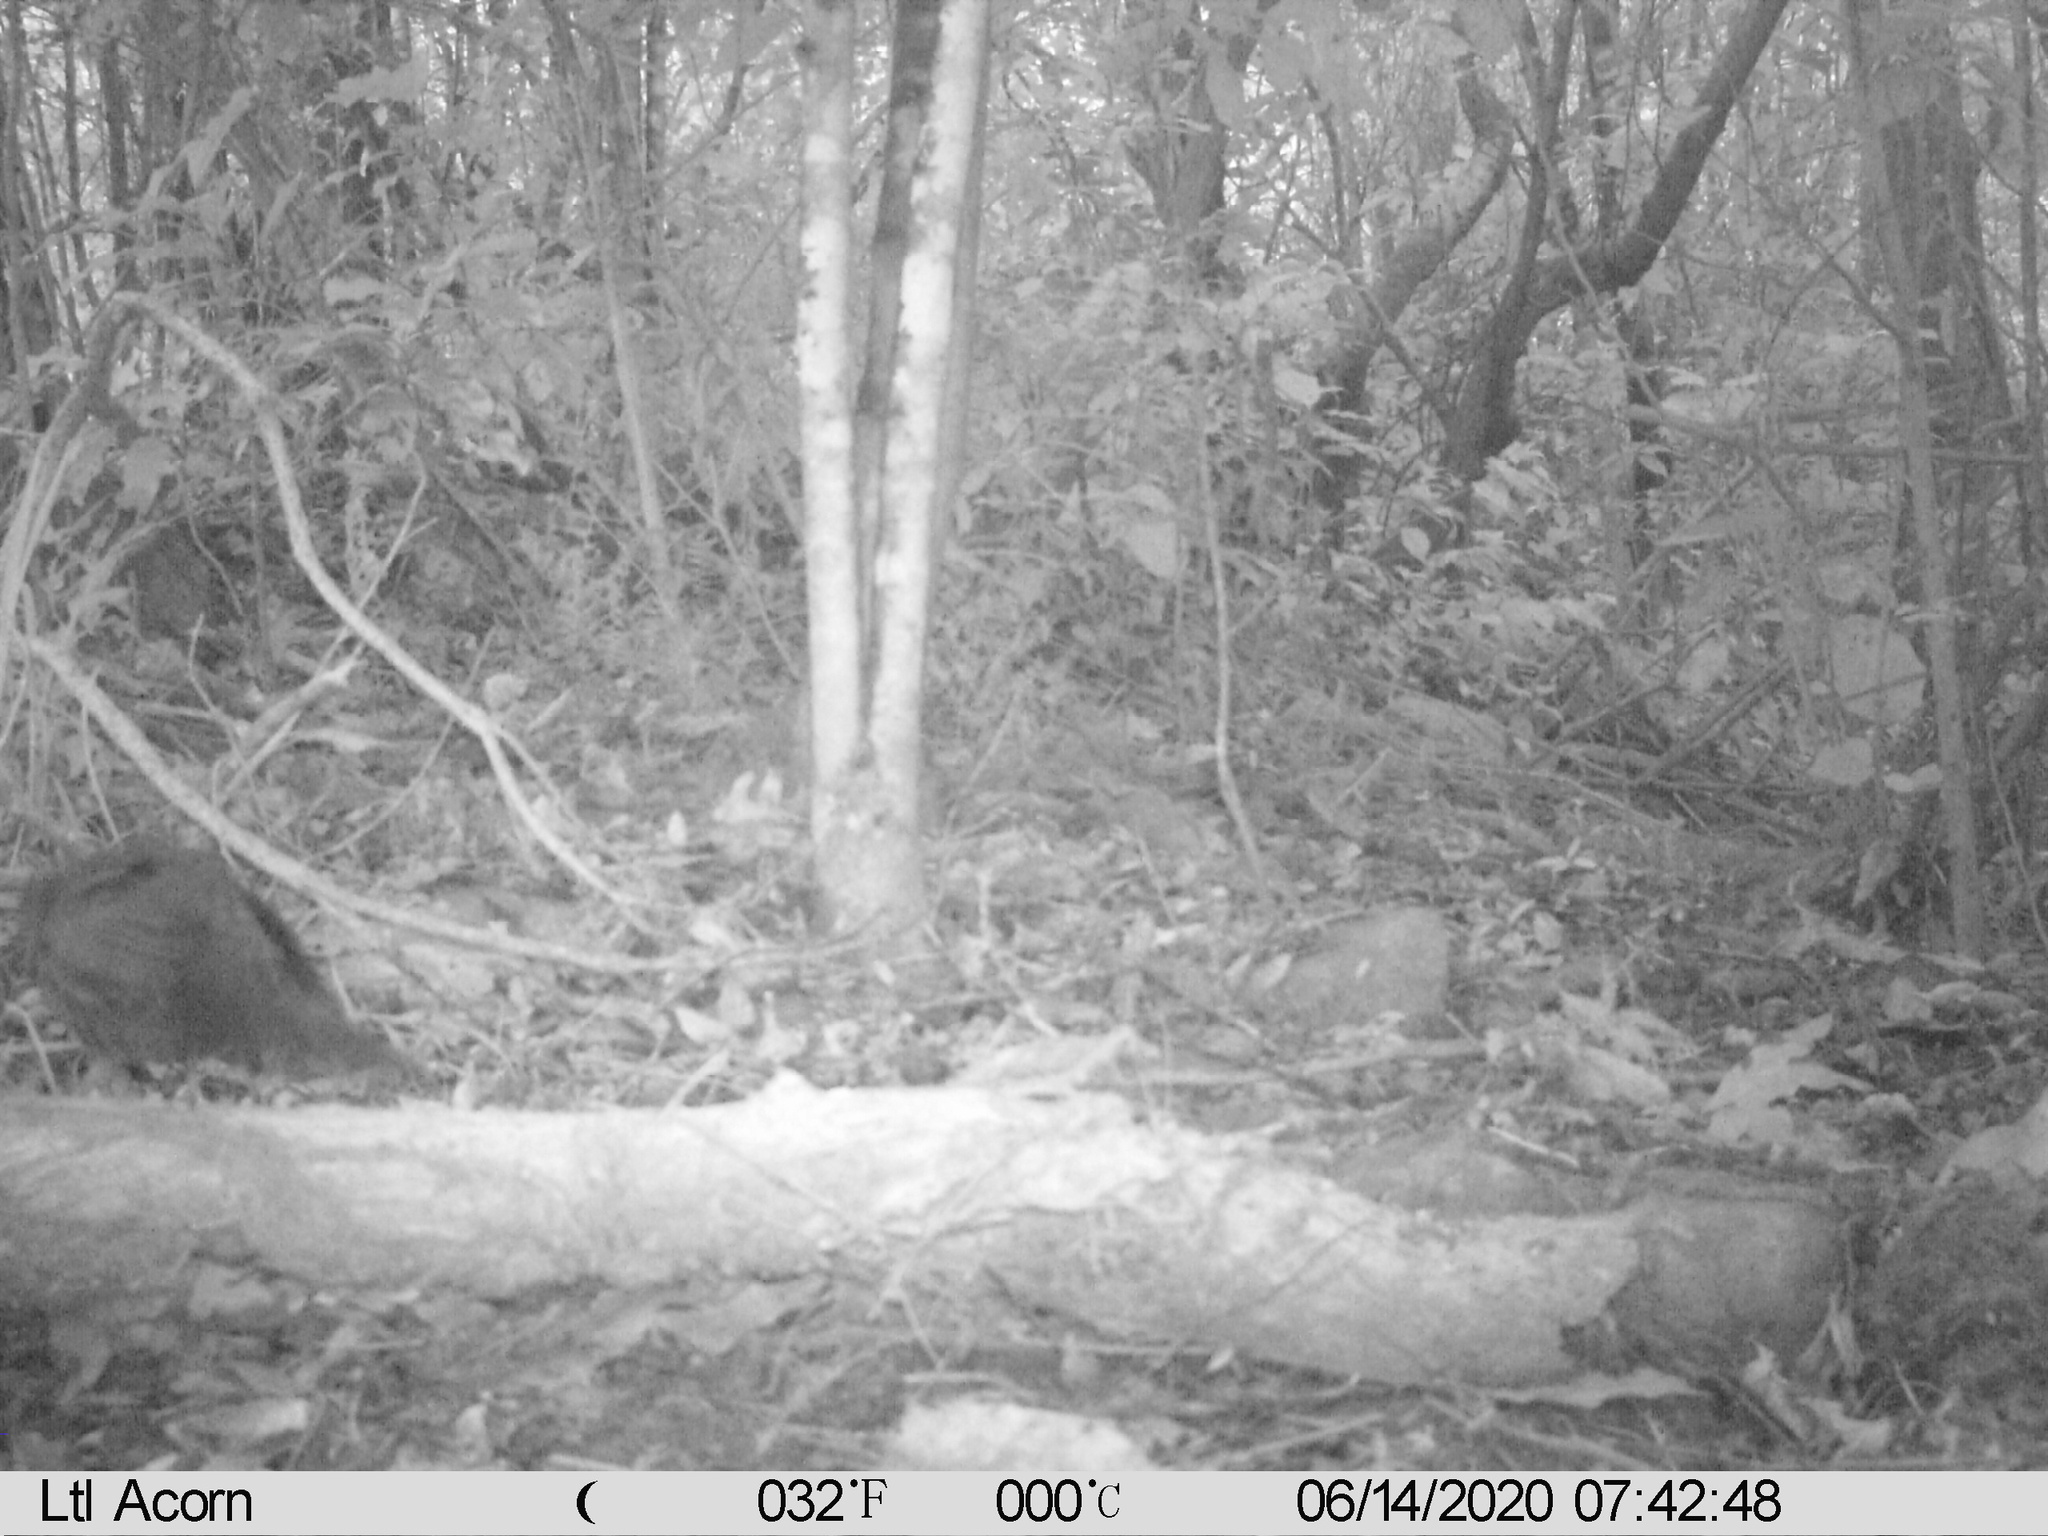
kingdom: Animalia
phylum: Chordata
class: Aves
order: Passeriformes
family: Turdidae
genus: Turdus
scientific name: Turdus merula
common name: Common blackbird
